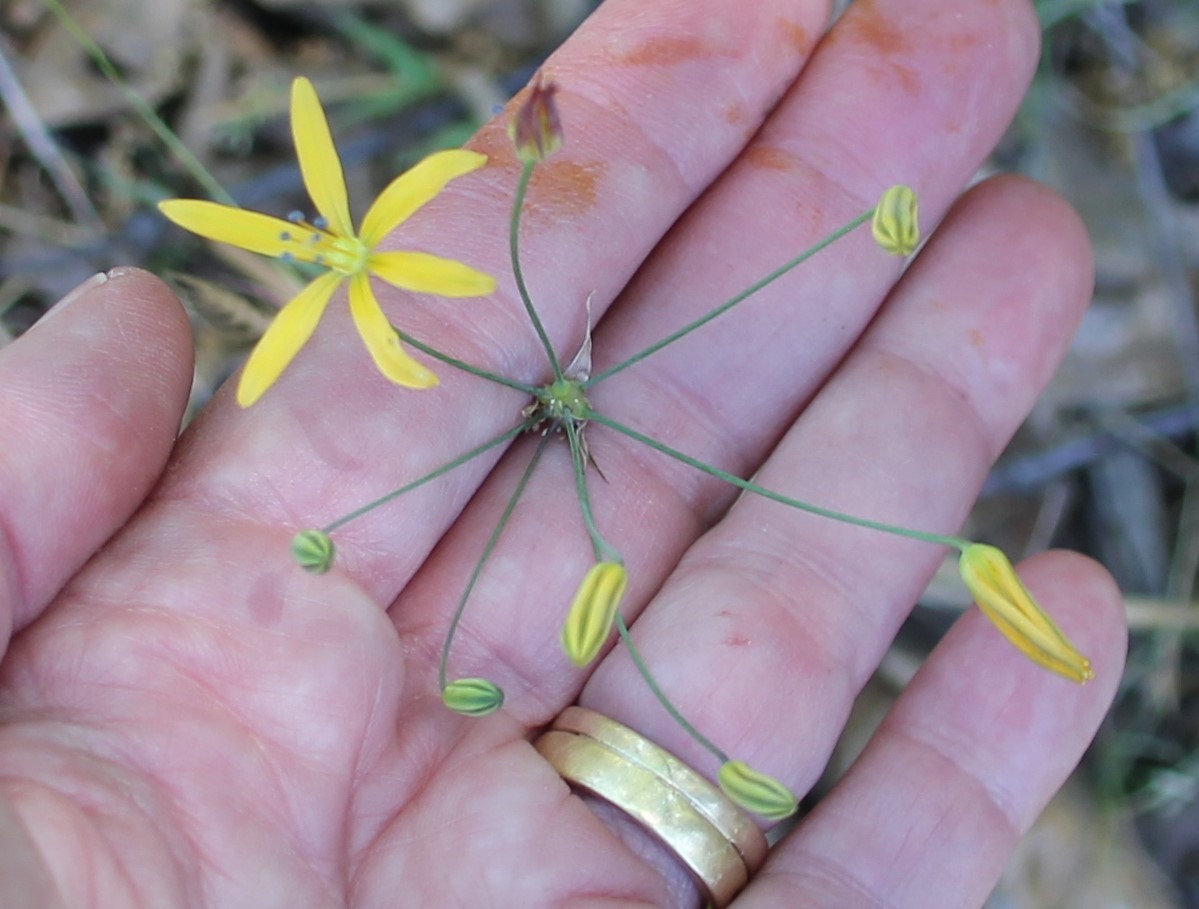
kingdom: Plantae
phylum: Tracheophyta
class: Liliopsida
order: Asparagales
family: Asparagaceae
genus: Bloomeria
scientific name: Bloomeria crocea
